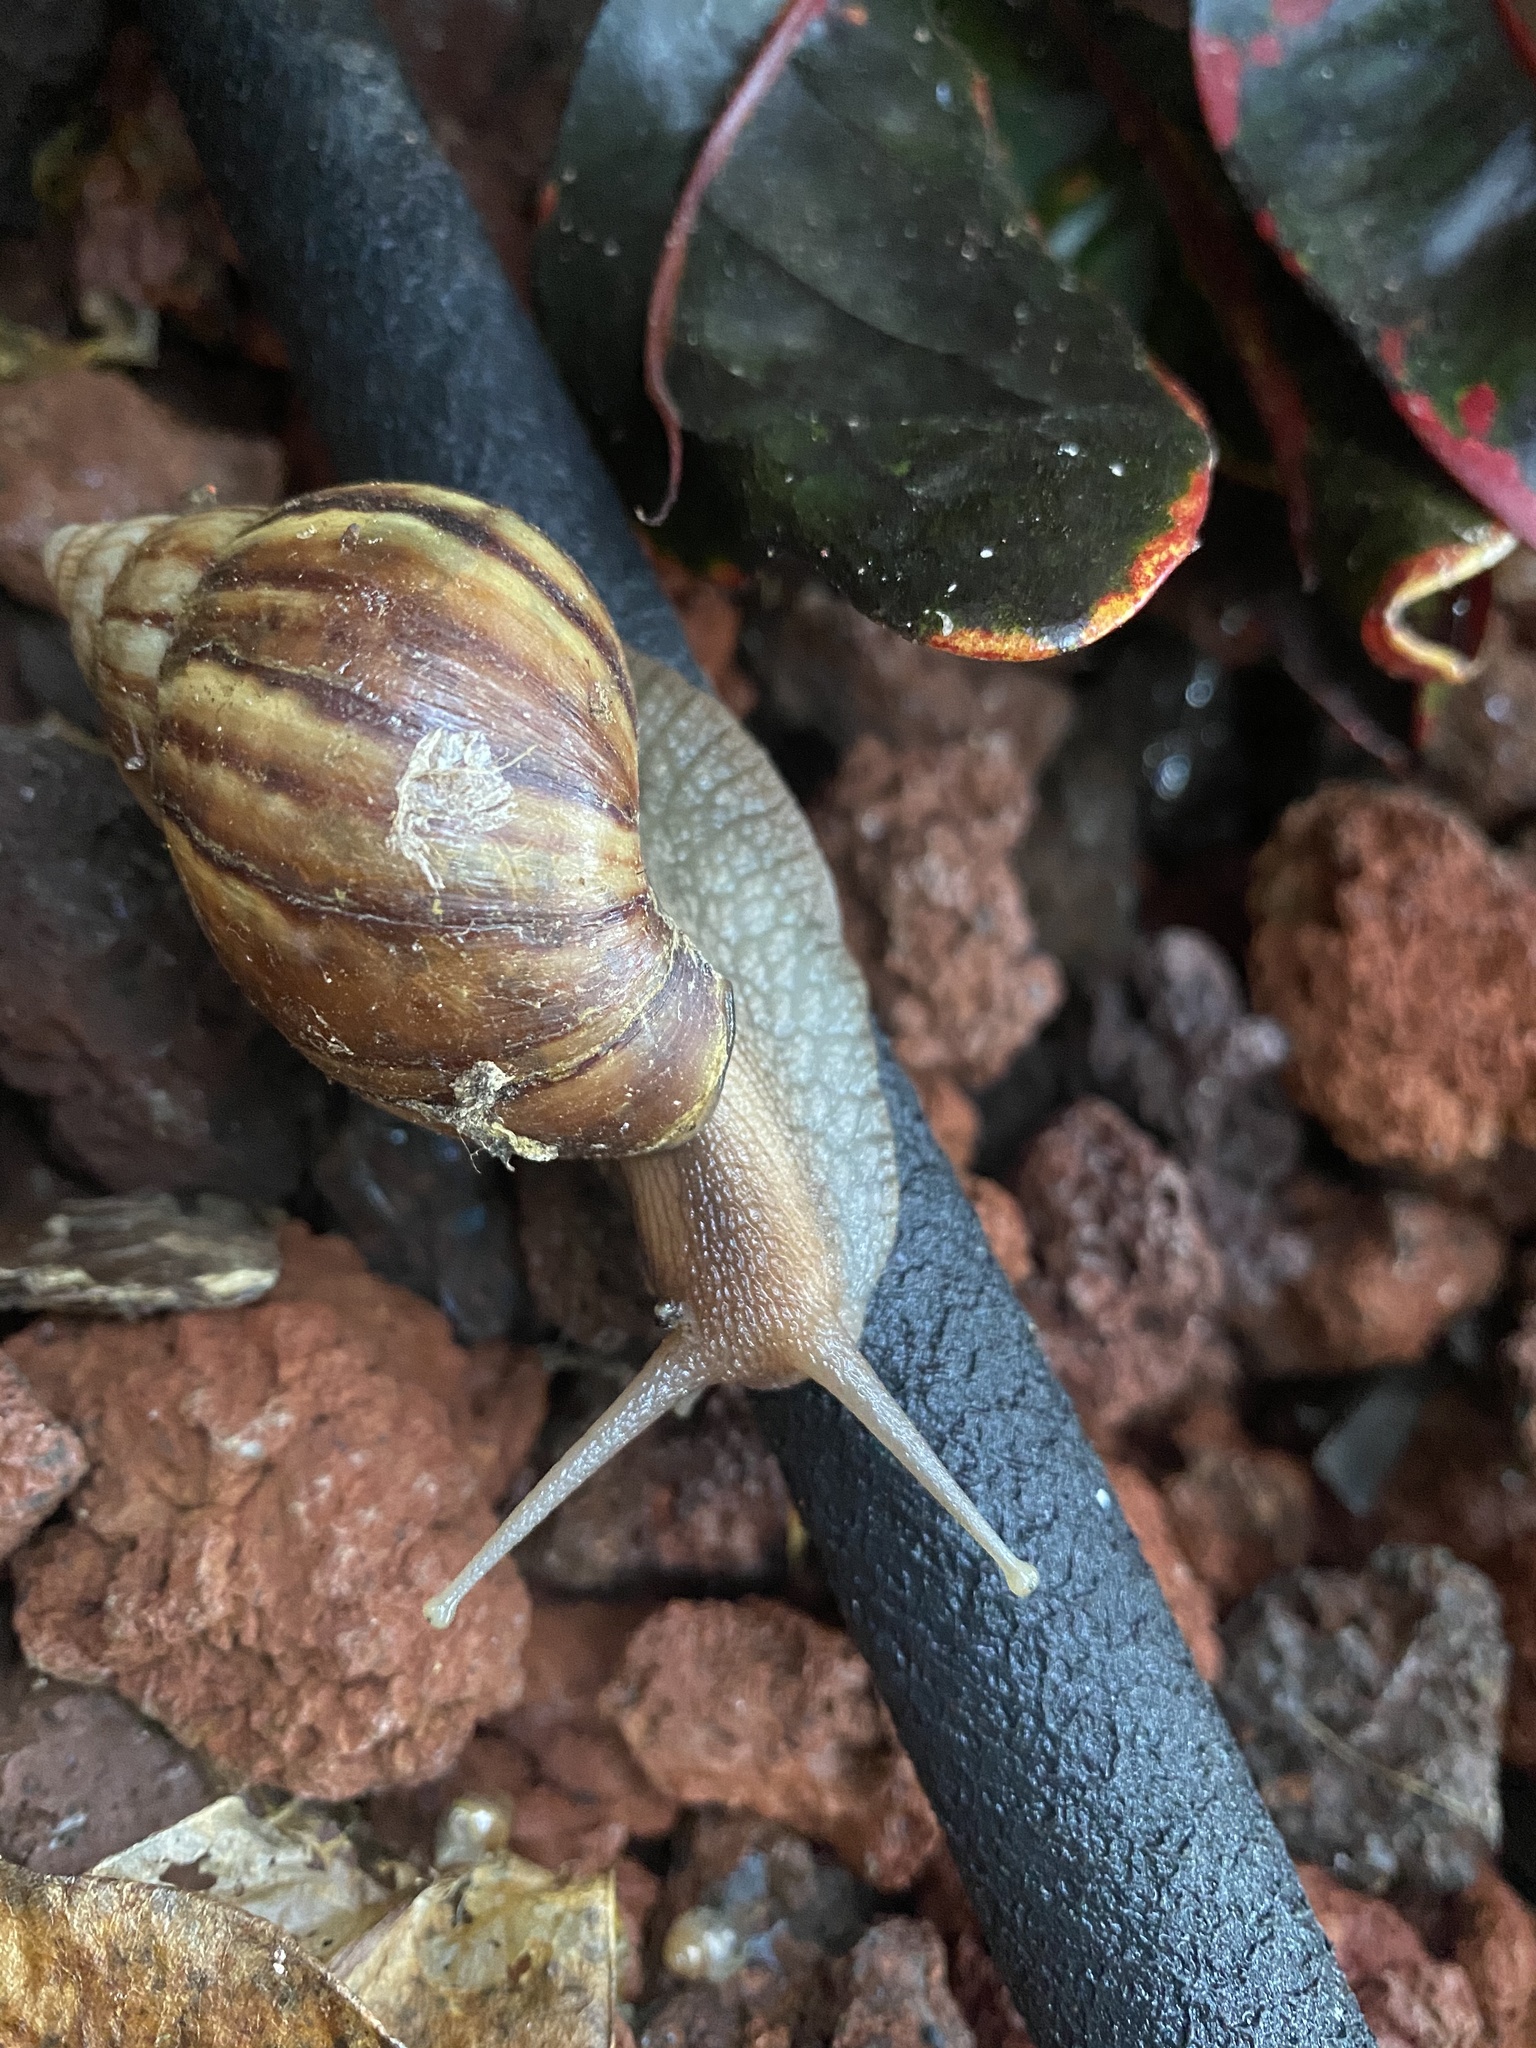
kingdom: Animalia
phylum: Mollusca
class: Gastropoda
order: Stylommatophora
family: Achatinidae
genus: Lissachatina
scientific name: Lissachatina fulica
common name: Giant african snail
